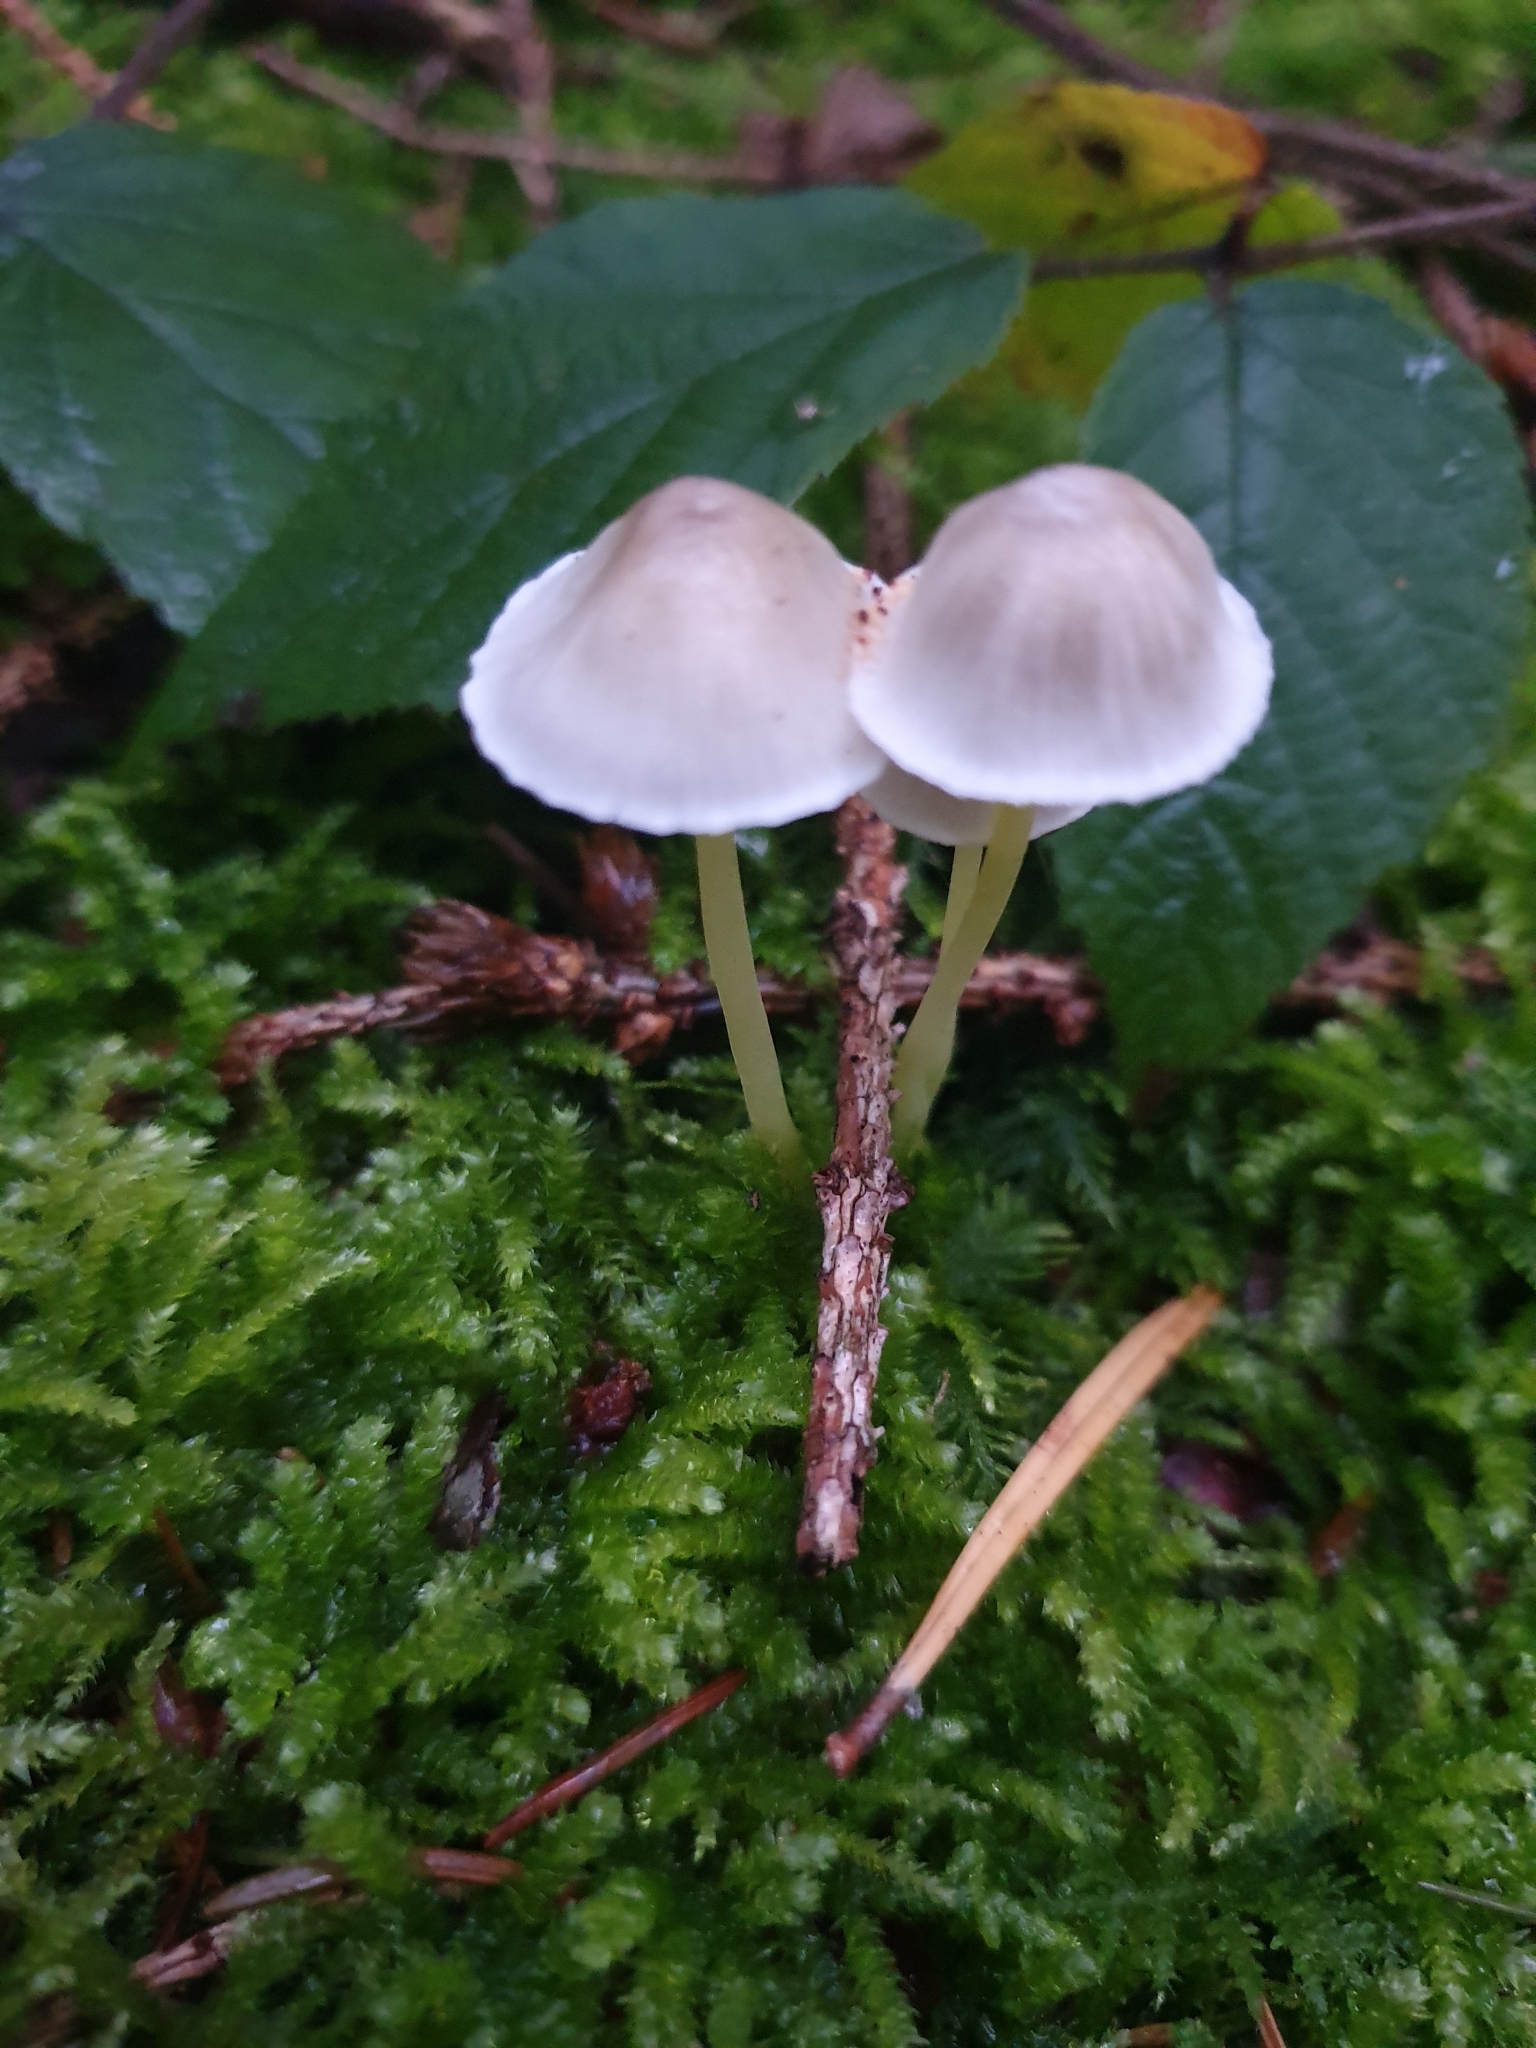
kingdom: Fungi
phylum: Basidiomycota
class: Agaricomycetes
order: Agaricales
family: Mycenaceae
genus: Mycena
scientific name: Mycena epipterygia
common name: Yellowleg bonnet
